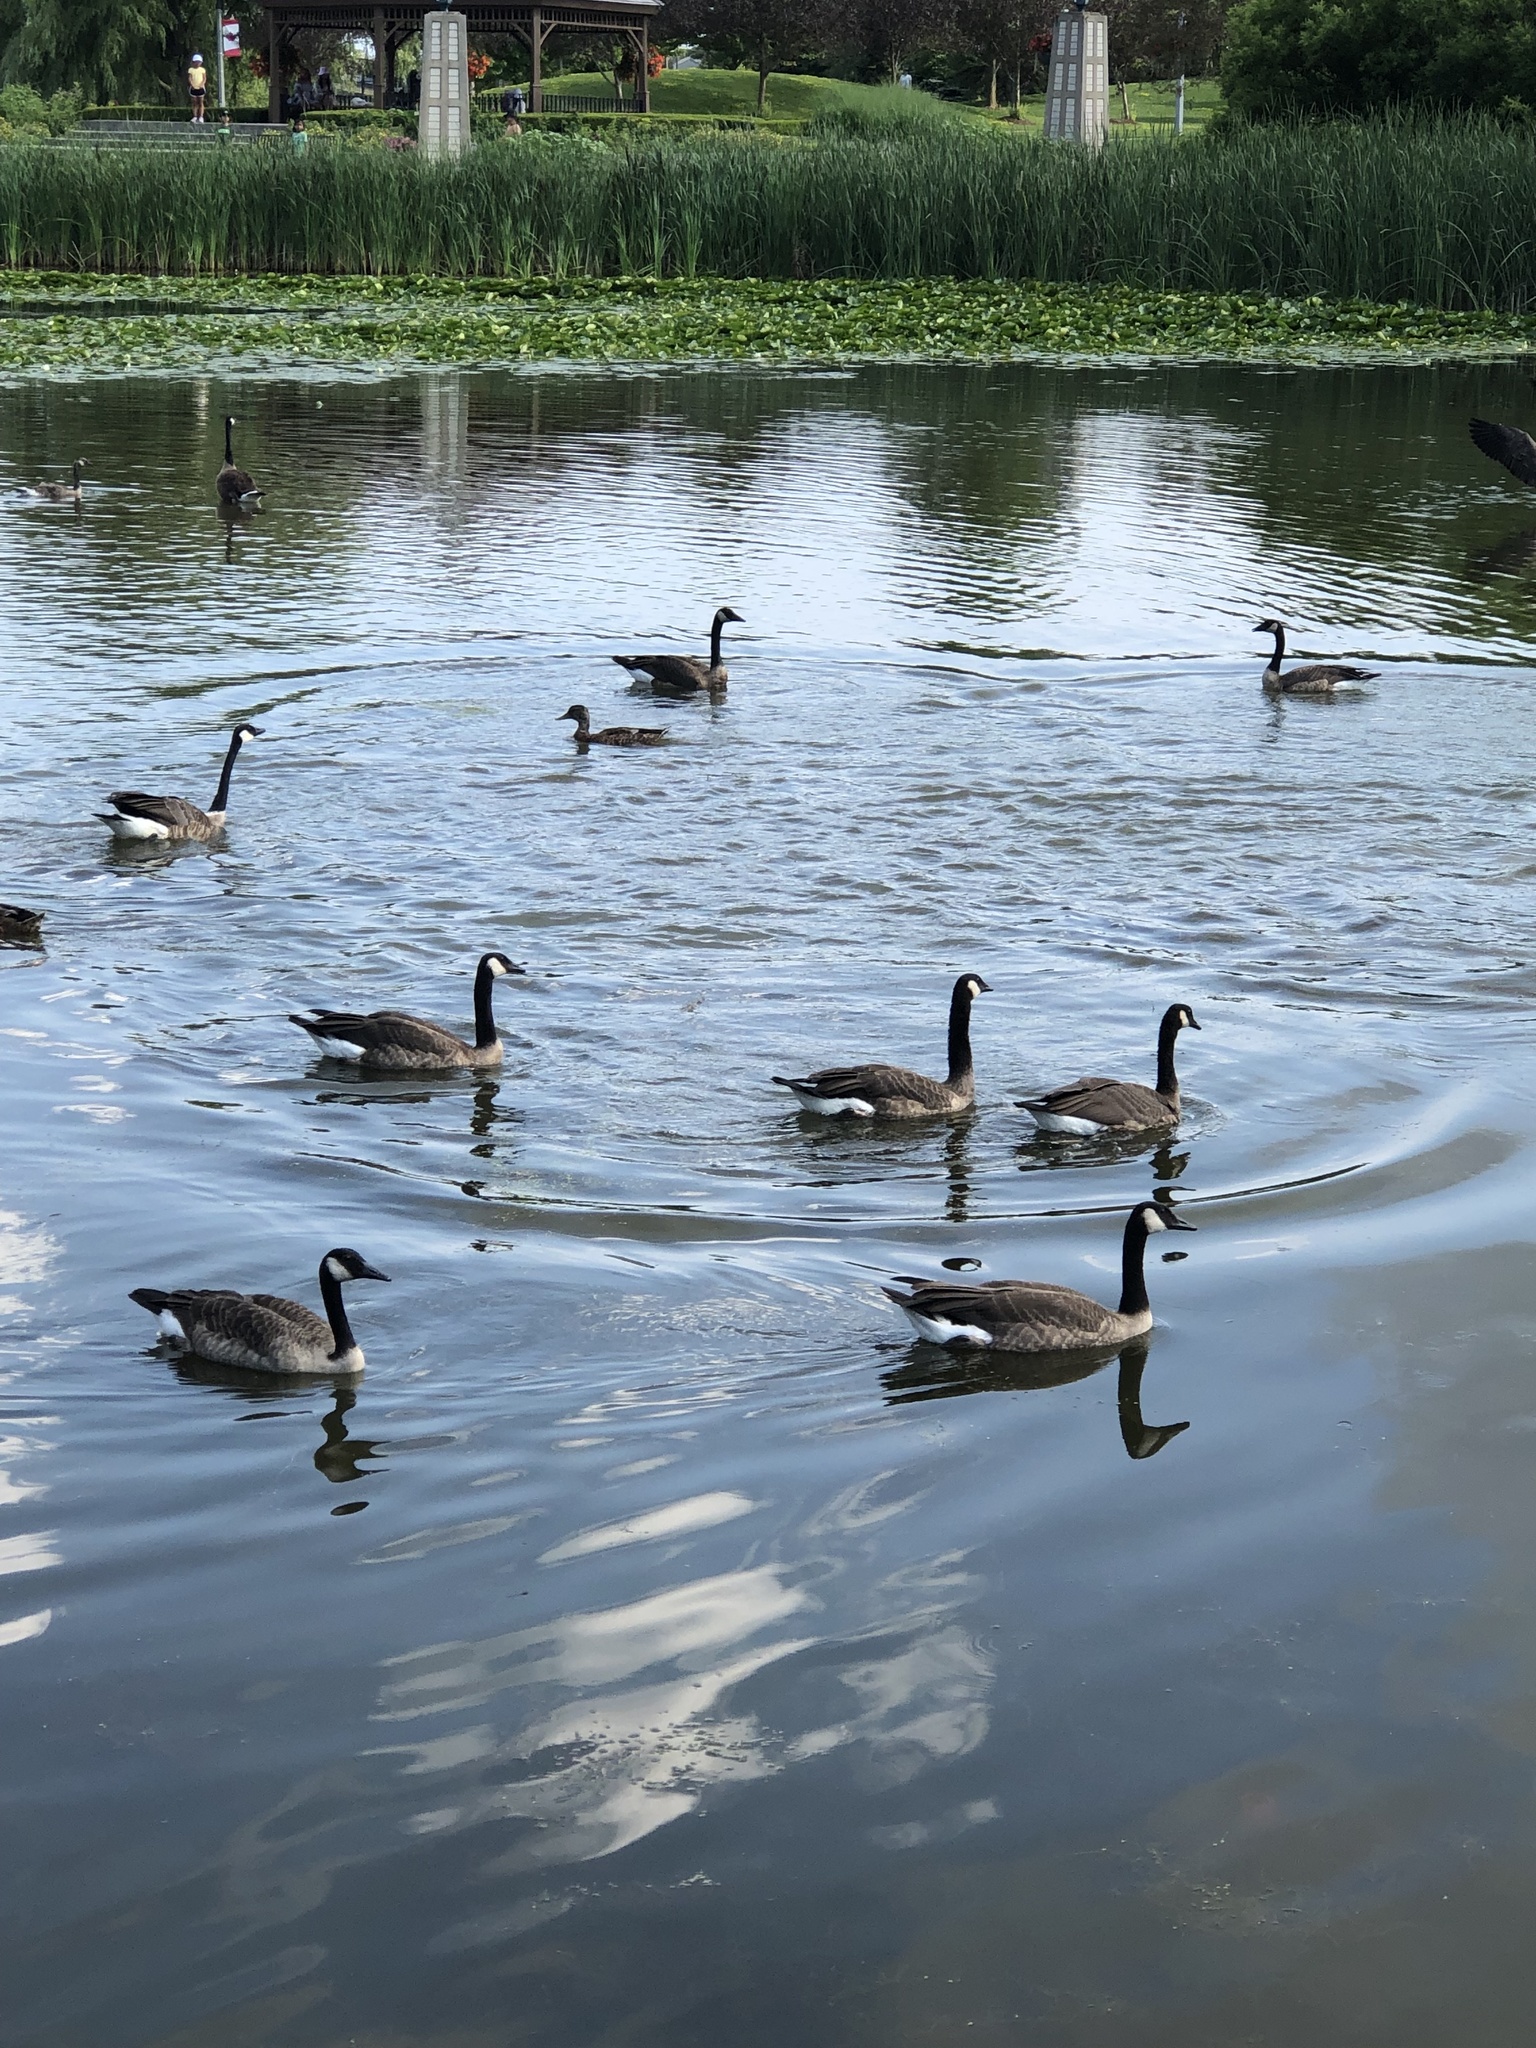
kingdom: Animalia
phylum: Chordata
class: Aves
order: Anseriformes
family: Anatidae
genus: Branta
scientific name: Branta canadensis
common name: Canada goose
